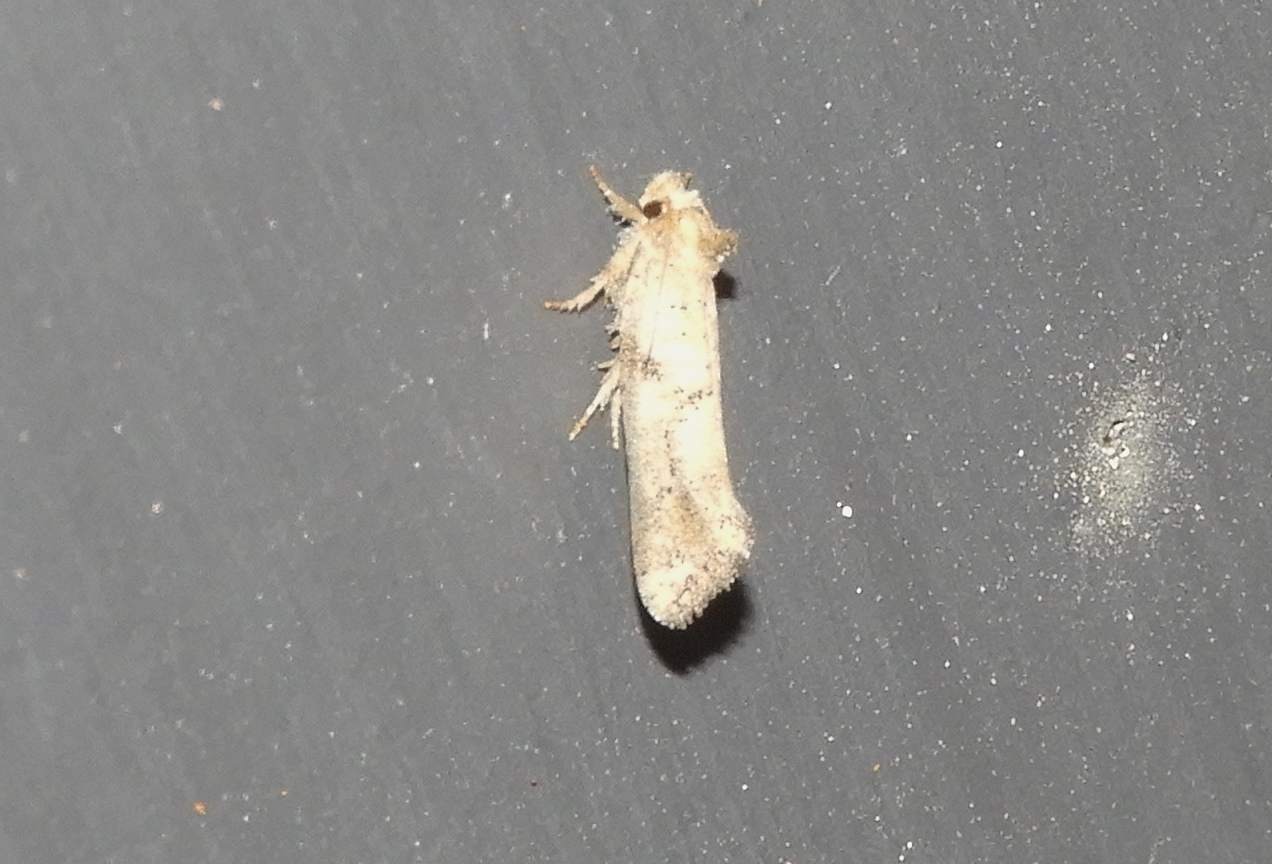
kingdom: Animalia
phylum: Arthropoda
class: Insecta
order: Lepidoptera
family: Tineidae
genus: Acrolophus
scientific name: Acrolophus
